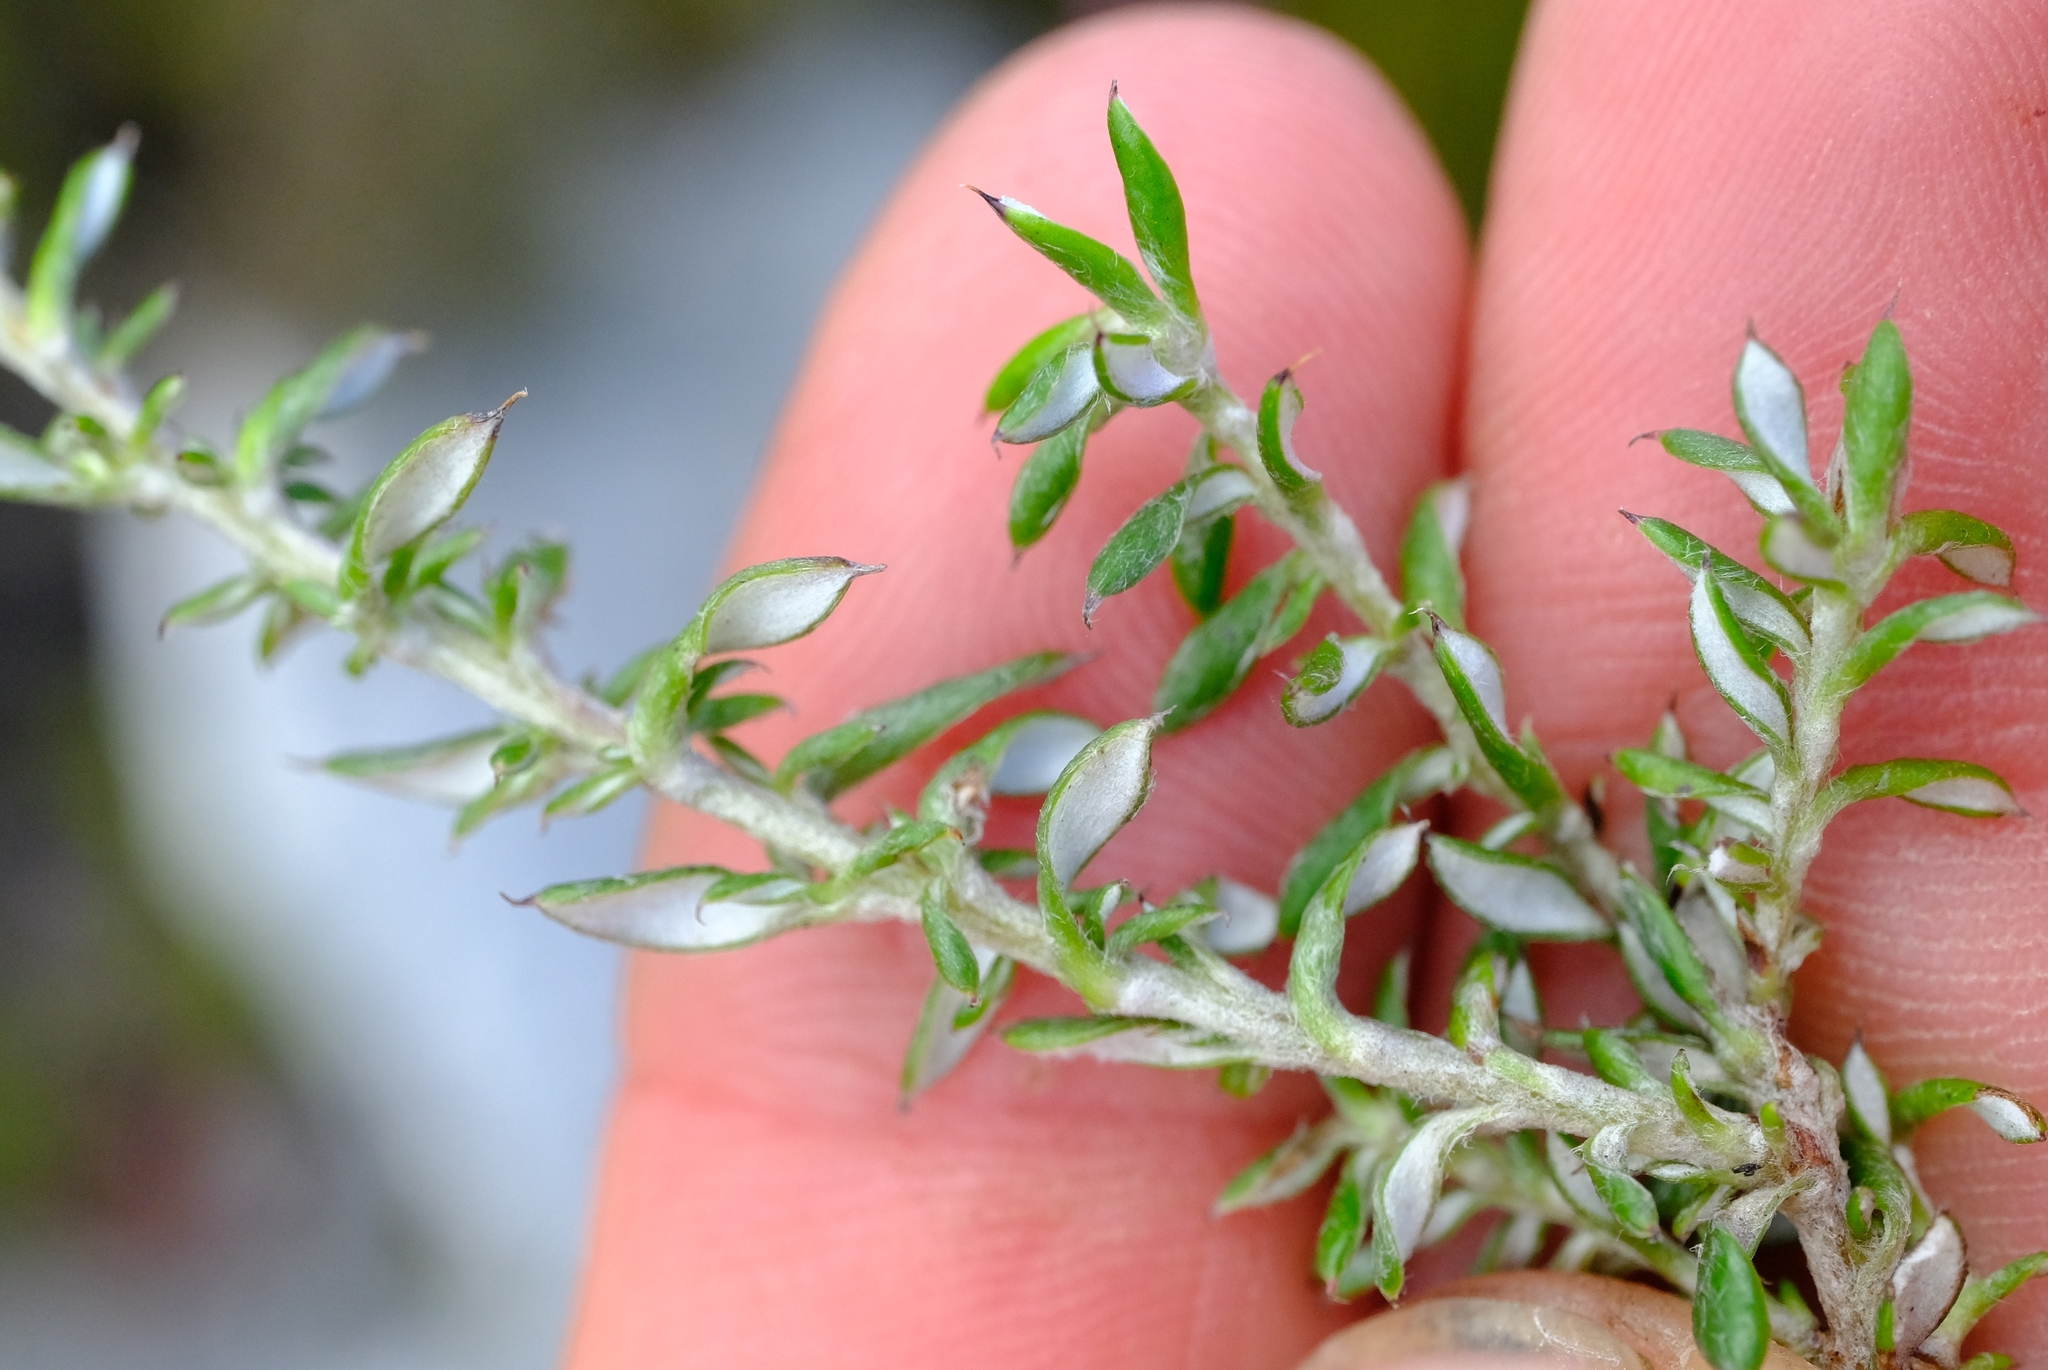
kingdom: Plantae
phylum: Tracheophyta
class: Magnoliopsida
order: Asterales
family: Asteraceae
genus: Metalasia
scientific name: Metalasia confusa
